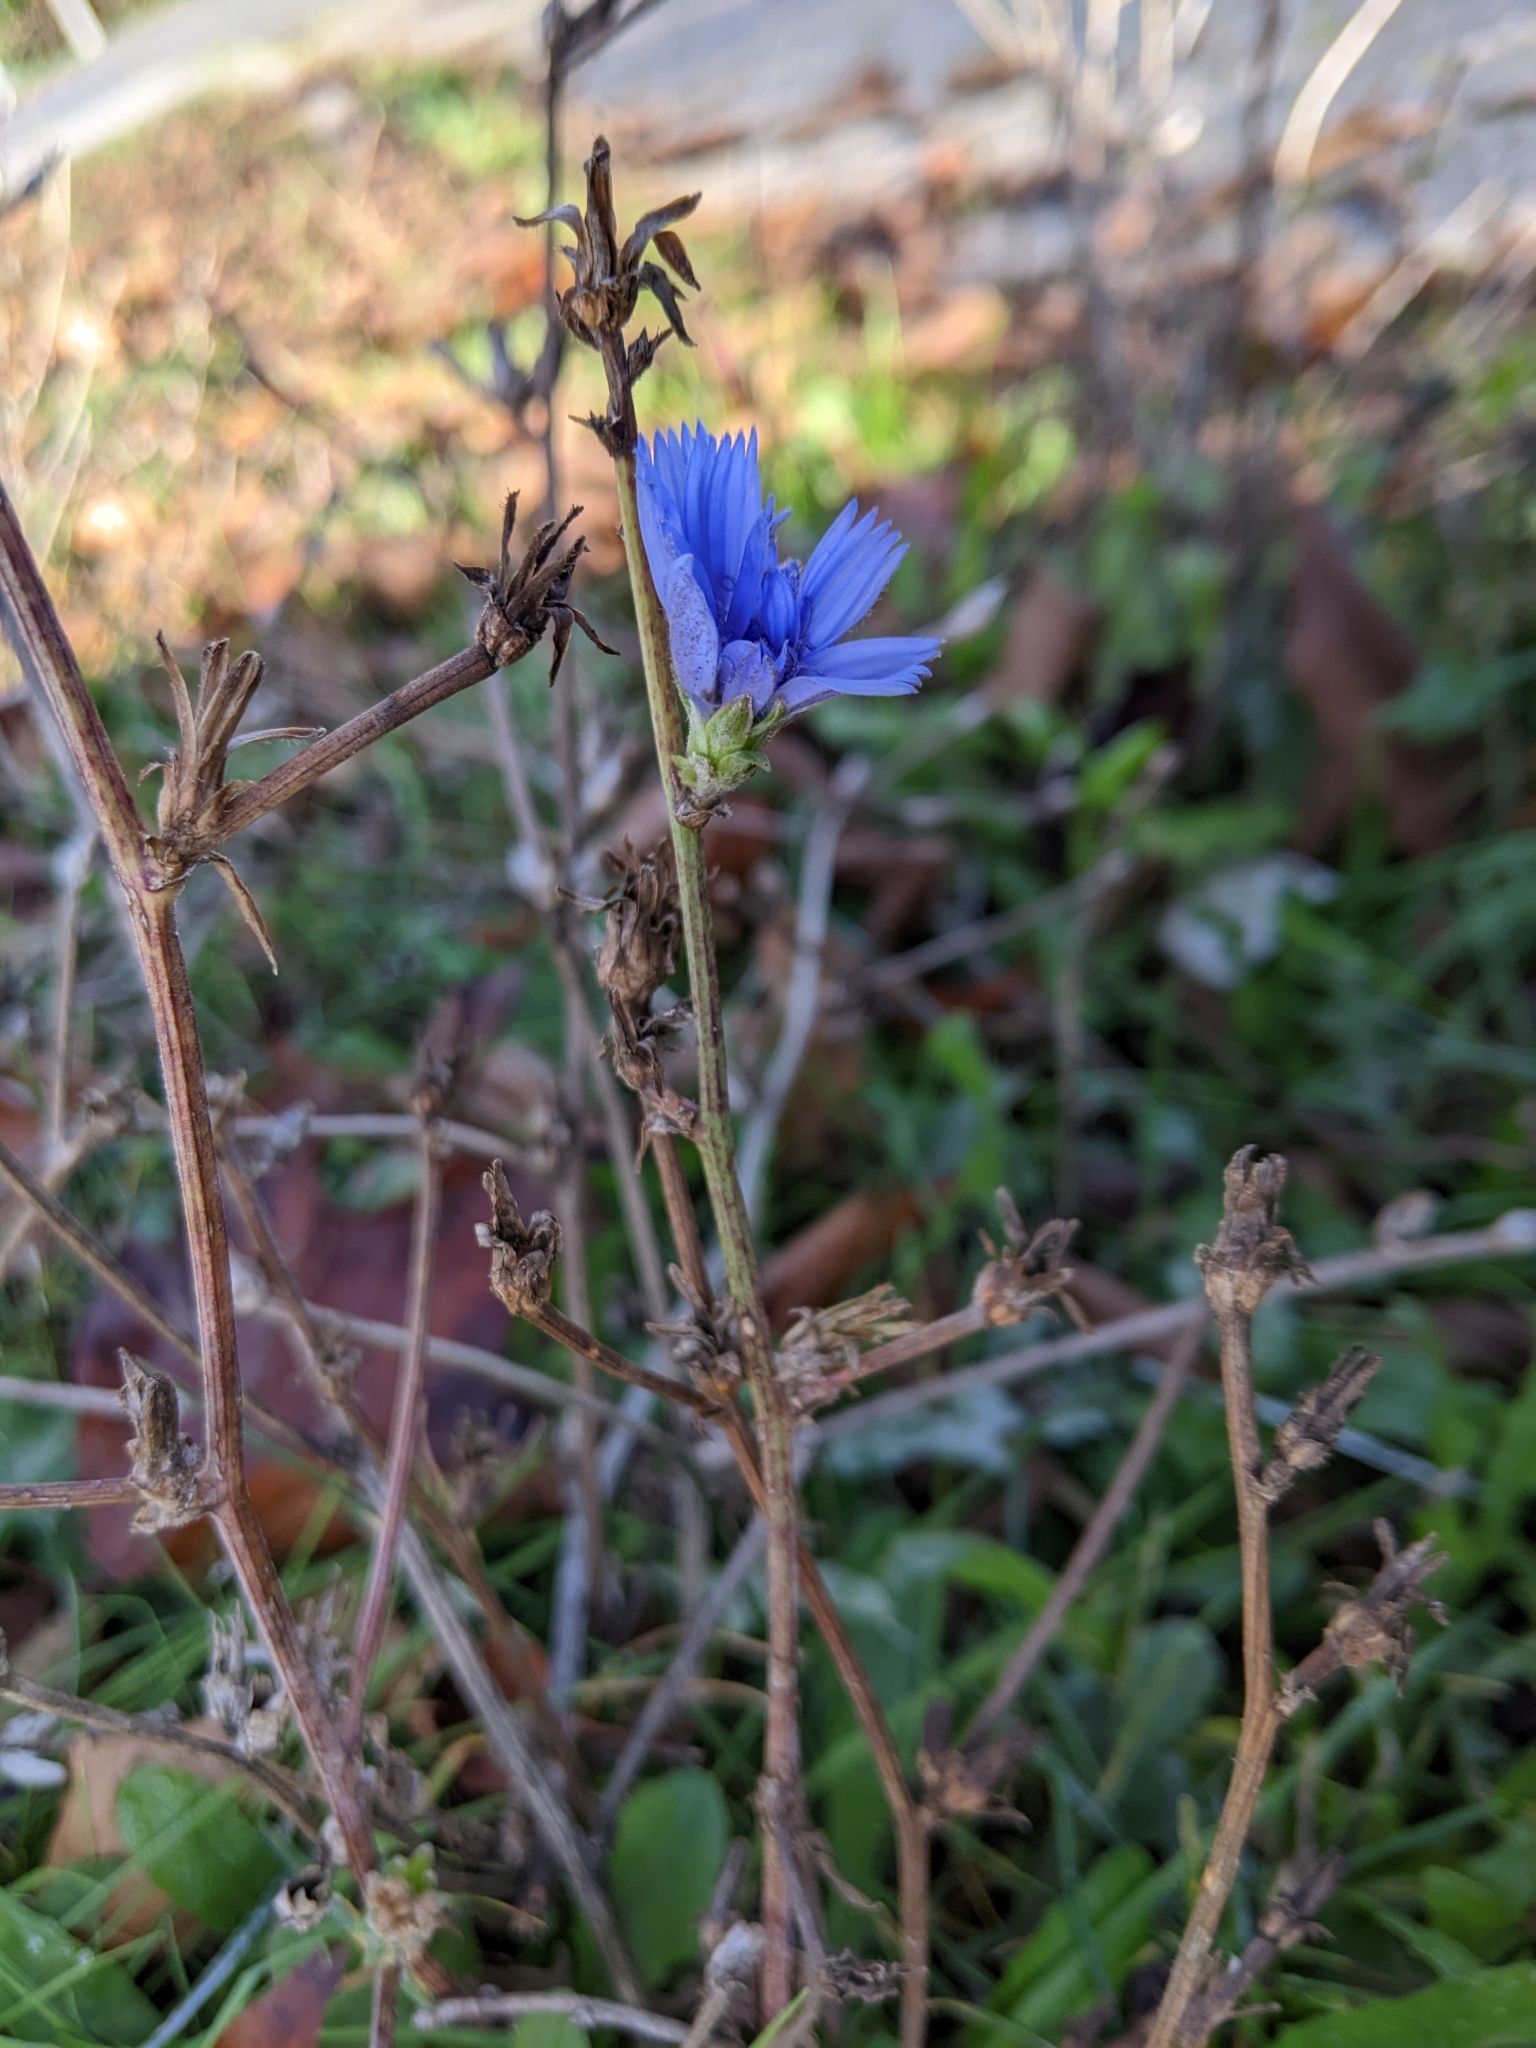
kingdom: Plantae
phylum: Tracheophyta
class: Magnoliopsida
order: Asterales
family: Asteraceae
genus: Cichorium
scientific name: Cichorium intybus
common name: Chicory
